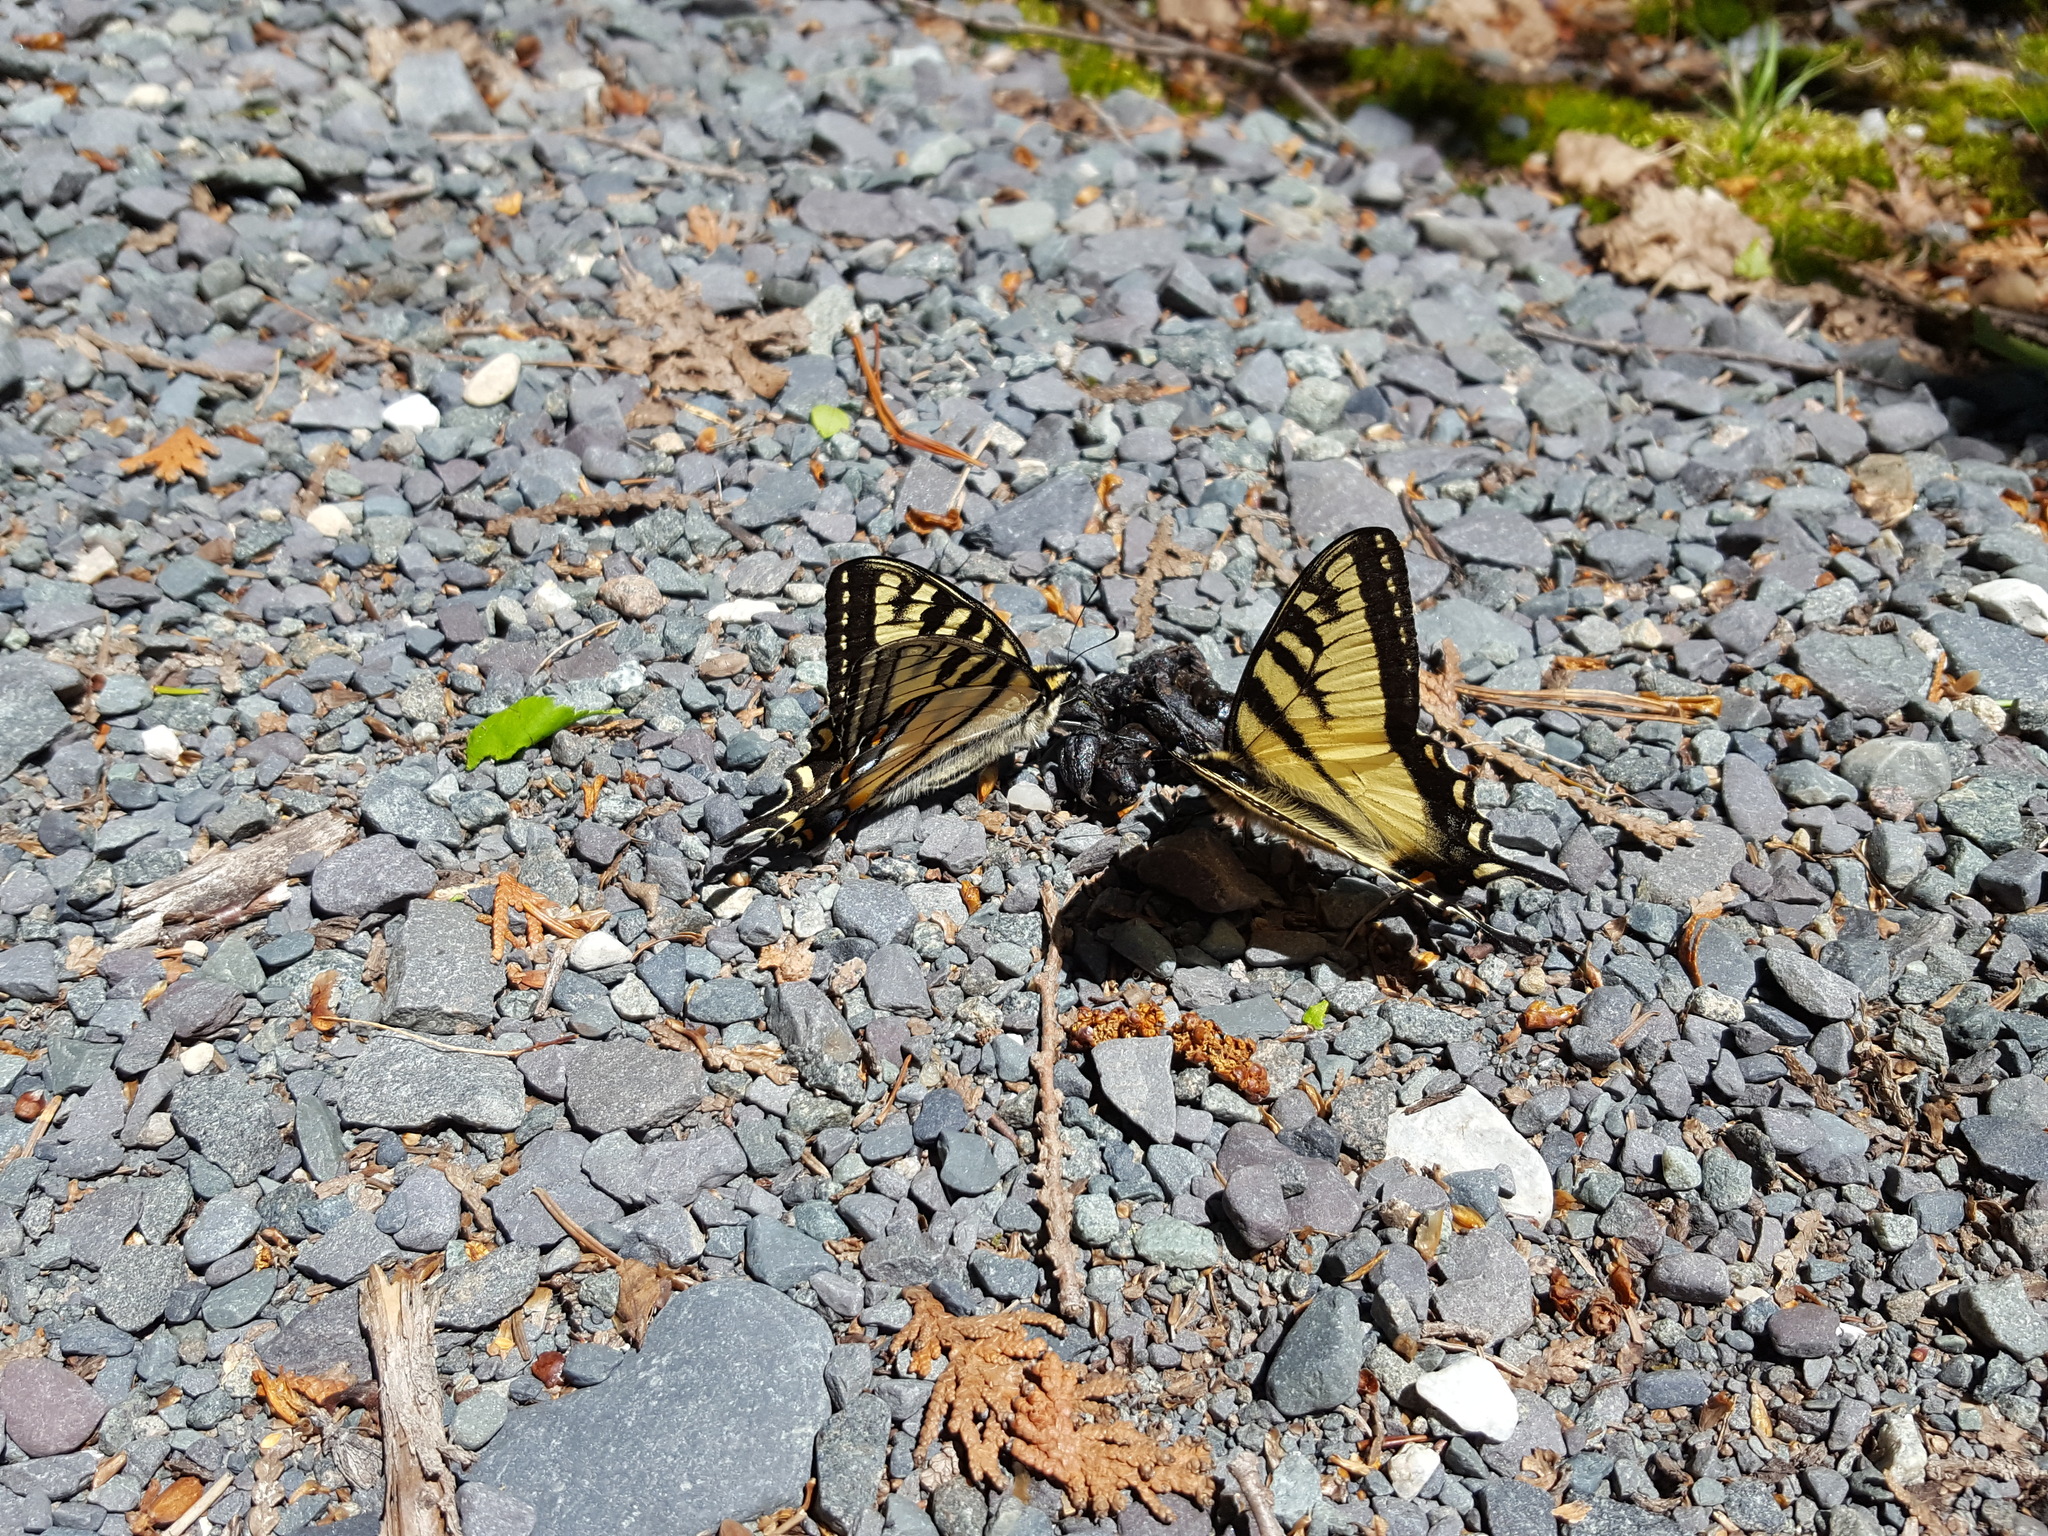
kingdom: Animalia
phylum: Arthropoda
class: Insecta
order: Lepidoptera
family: Papilionidae
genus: Papilio
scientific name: Papilio canadensis
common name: Canadian tiger swallowtail
